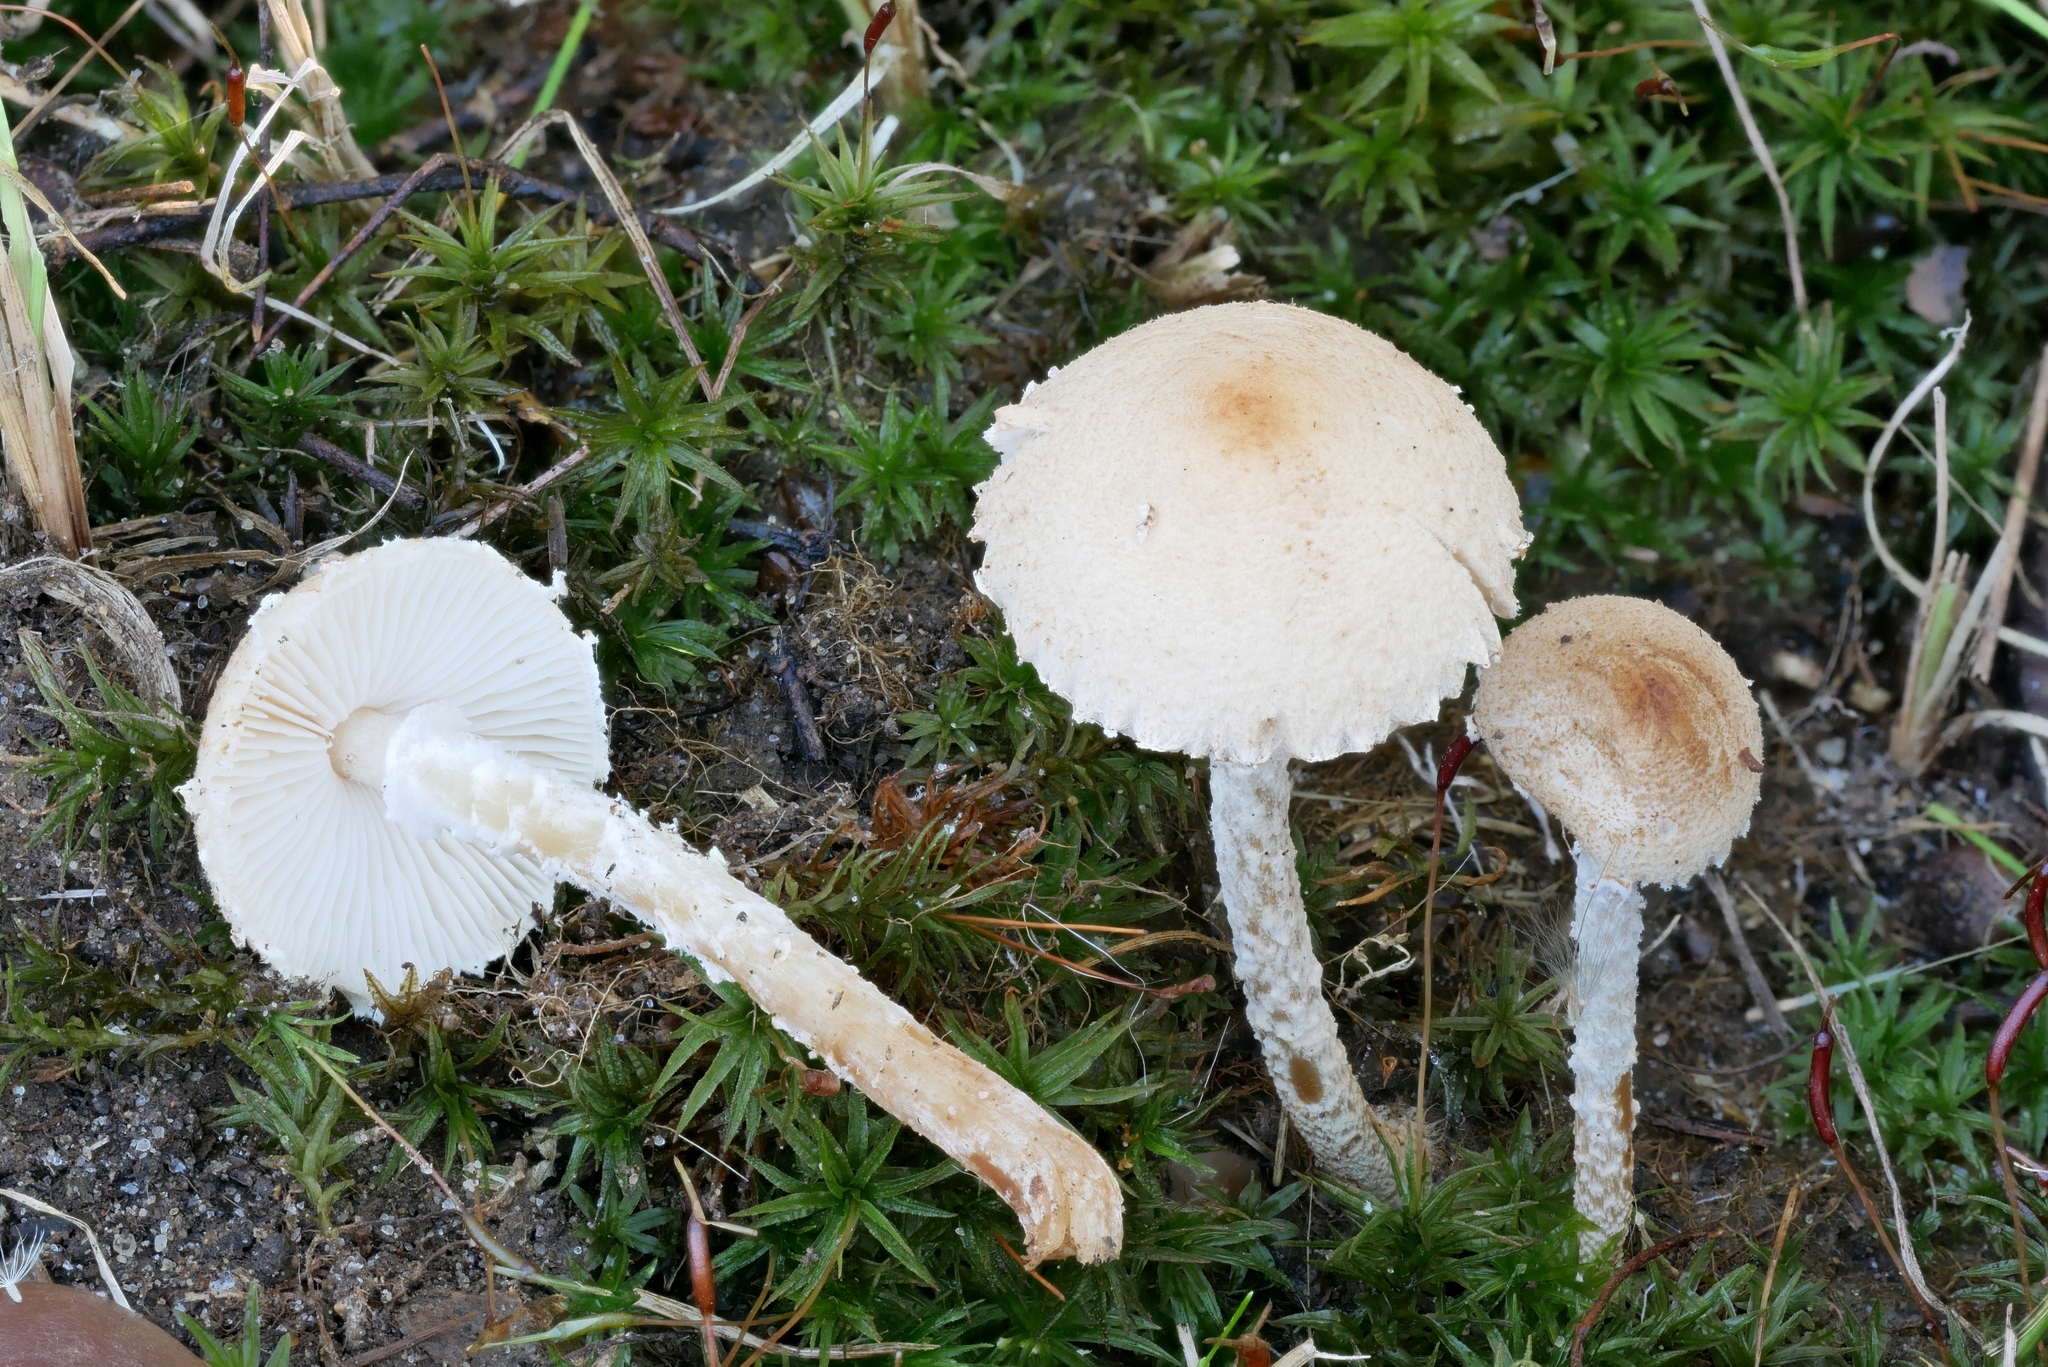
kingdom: Fungi
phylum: Basidiomycota
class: Agaricomycetes
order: Agaricales
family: Agaricaceae
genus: Lepiota
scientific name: Lepiota oreadiformis
